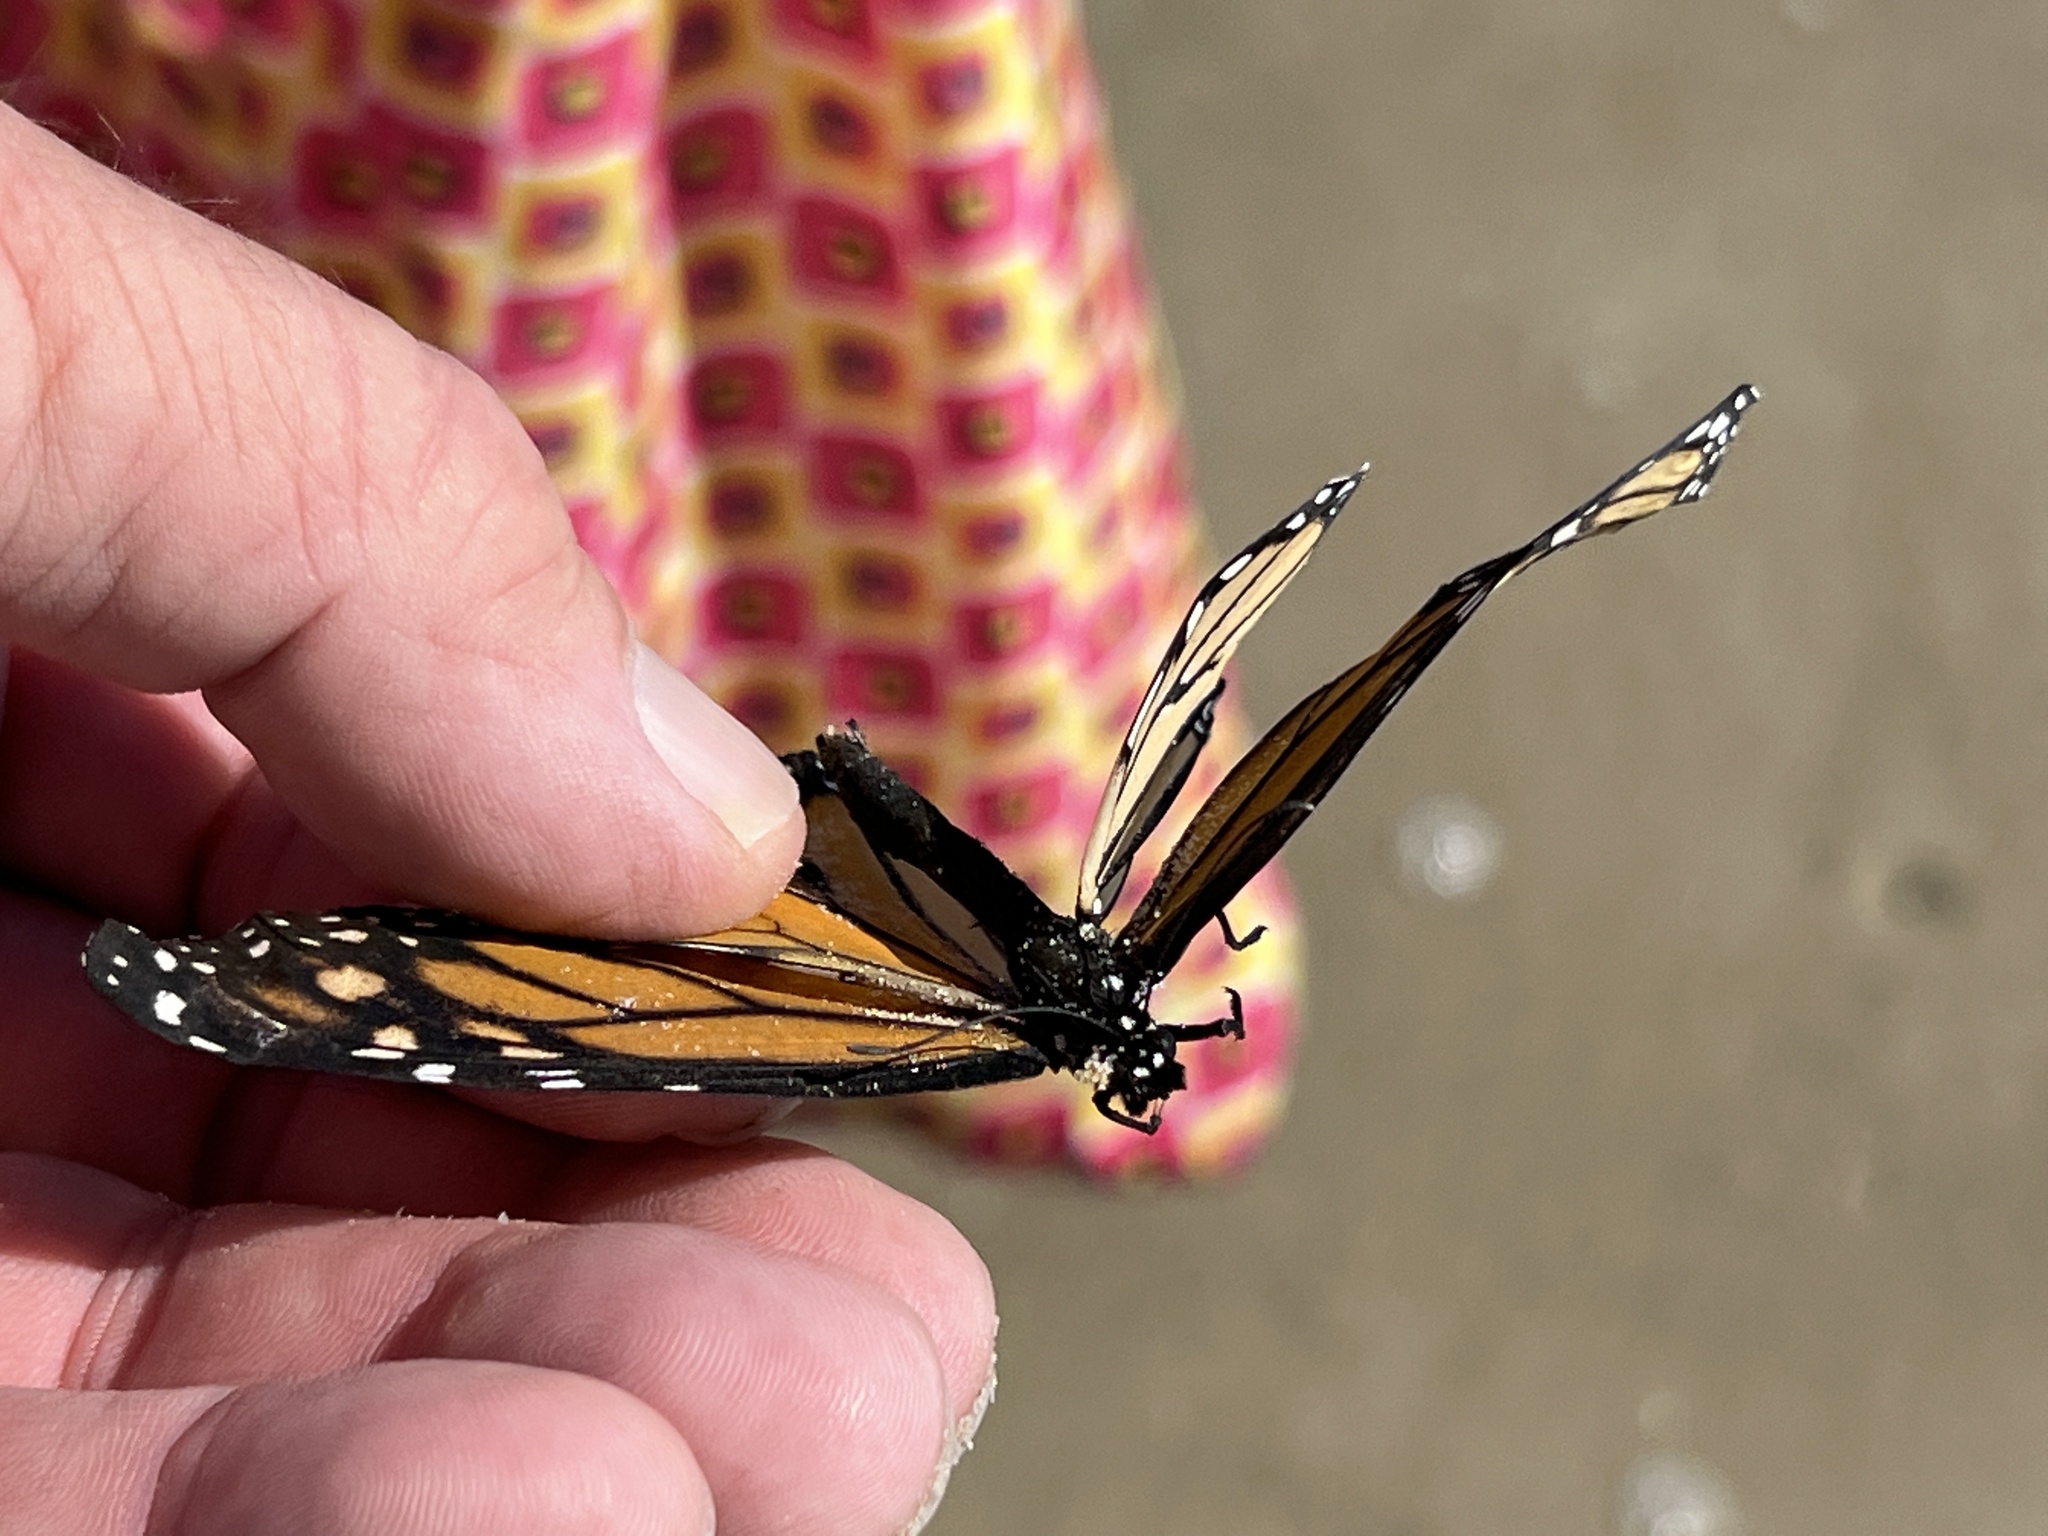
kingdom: Animalia
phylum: Arthropoda
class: Insecta
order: Lepidoptera
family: Nymphalidae
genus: Danaus
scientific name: Danaus plexippus
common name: Monarch
